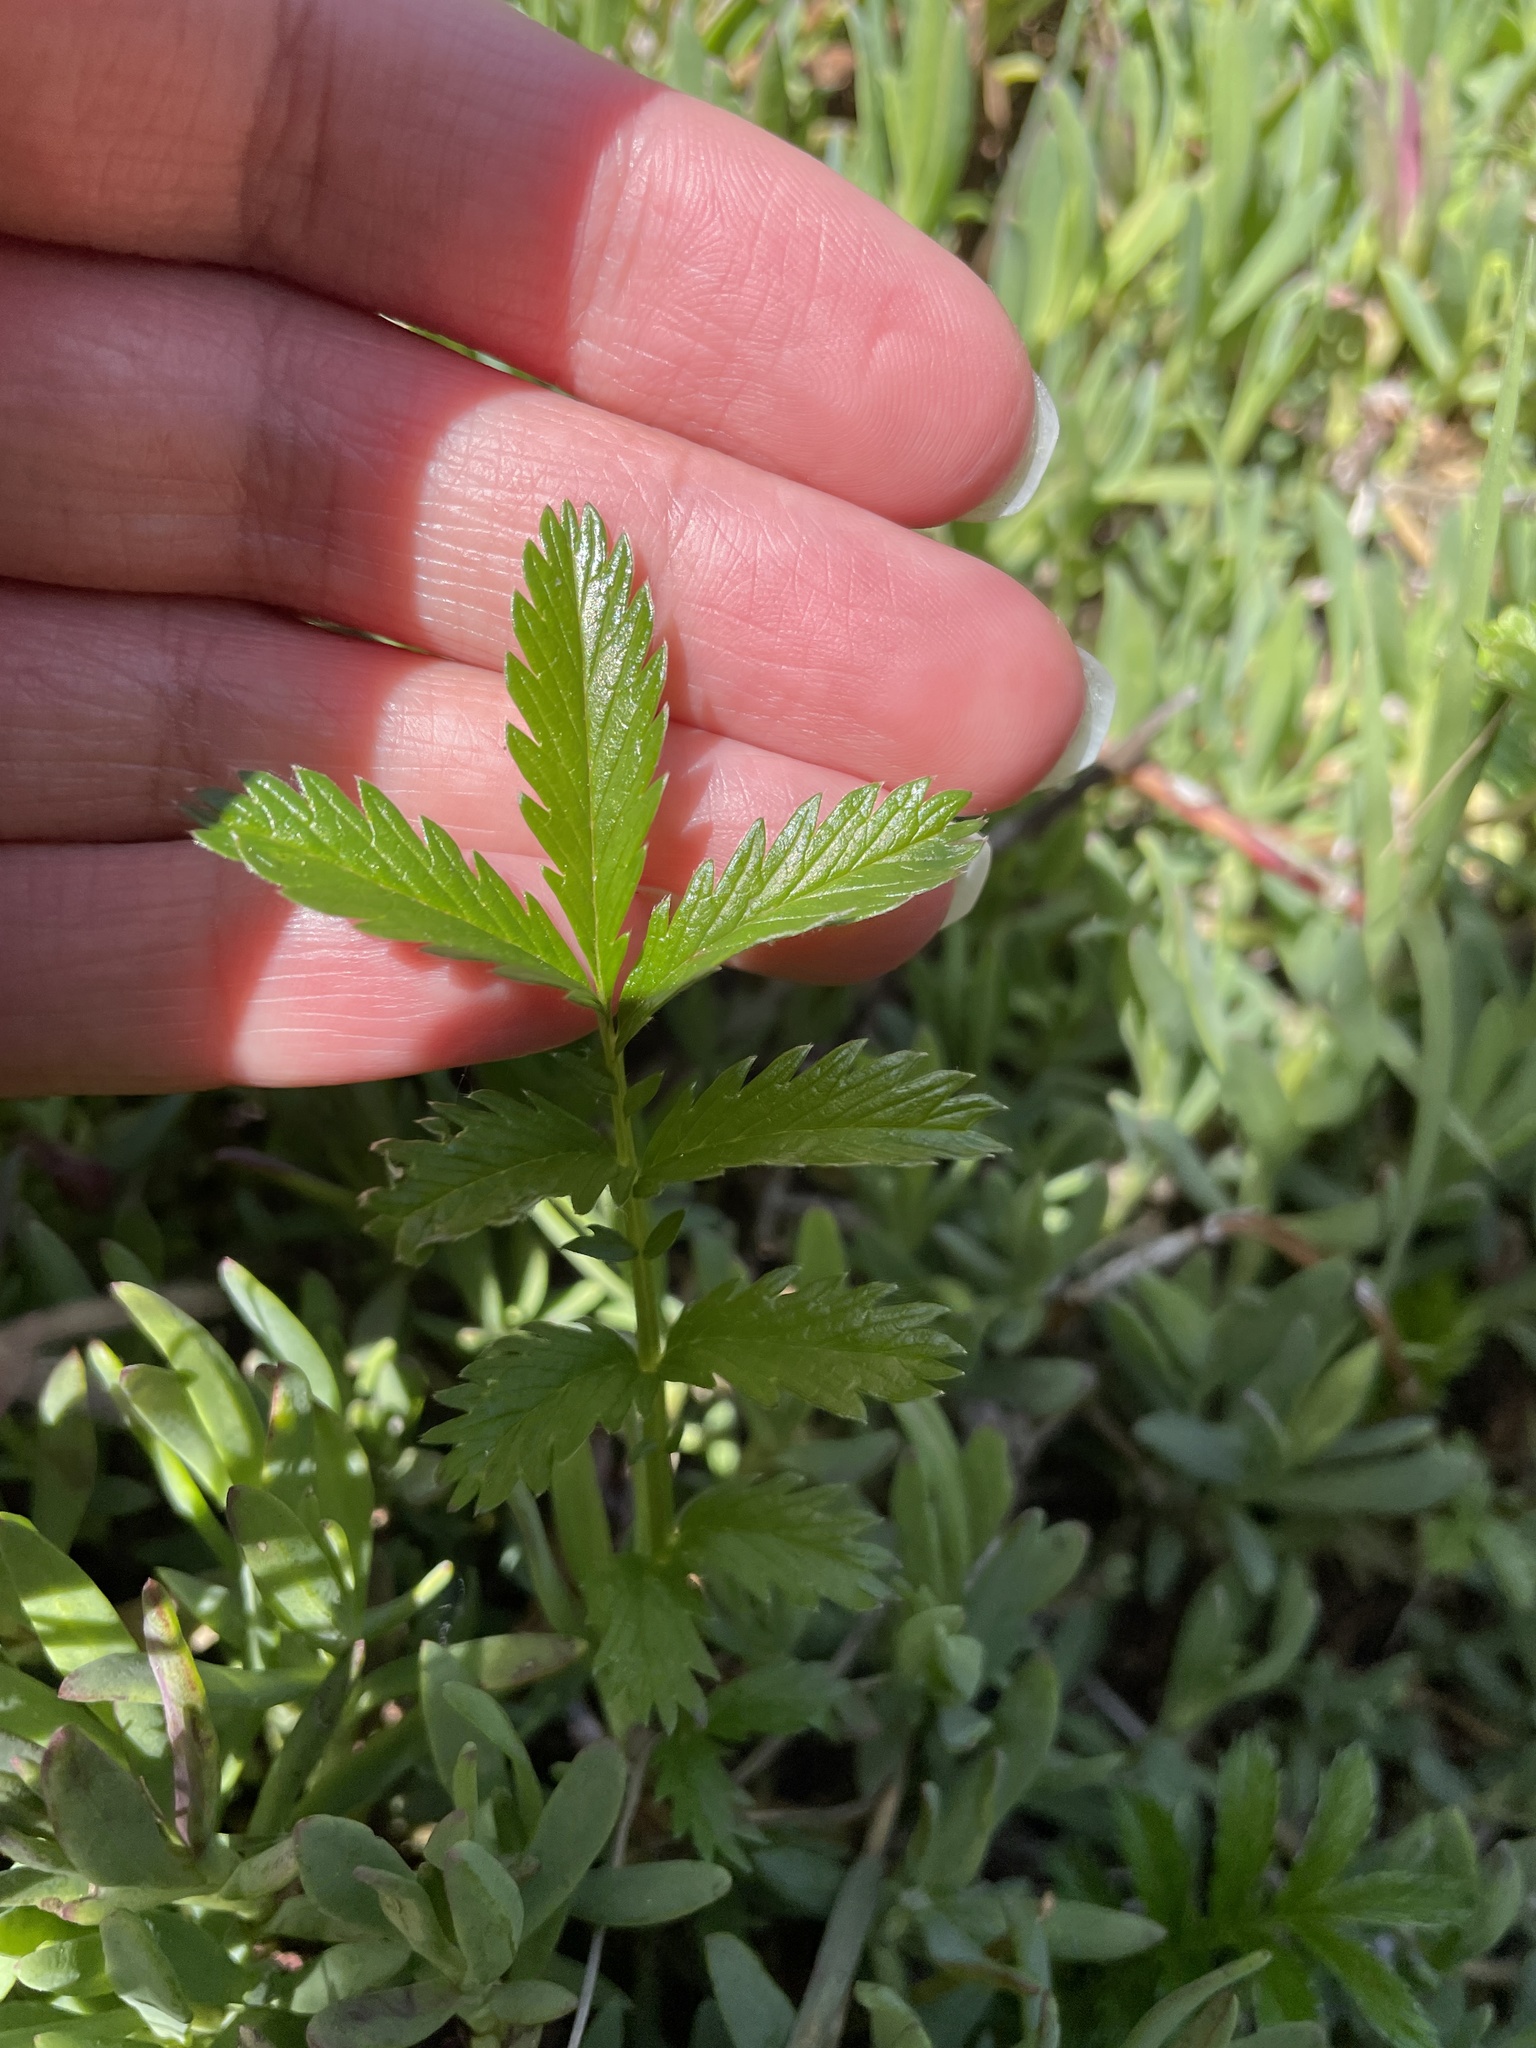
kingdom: Plantae
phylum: Tracheophyta
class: Magnoliopsida
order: Rosales
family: Rosaceae
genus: Argentina
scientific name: Argentina anserina
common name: Common silverweed
